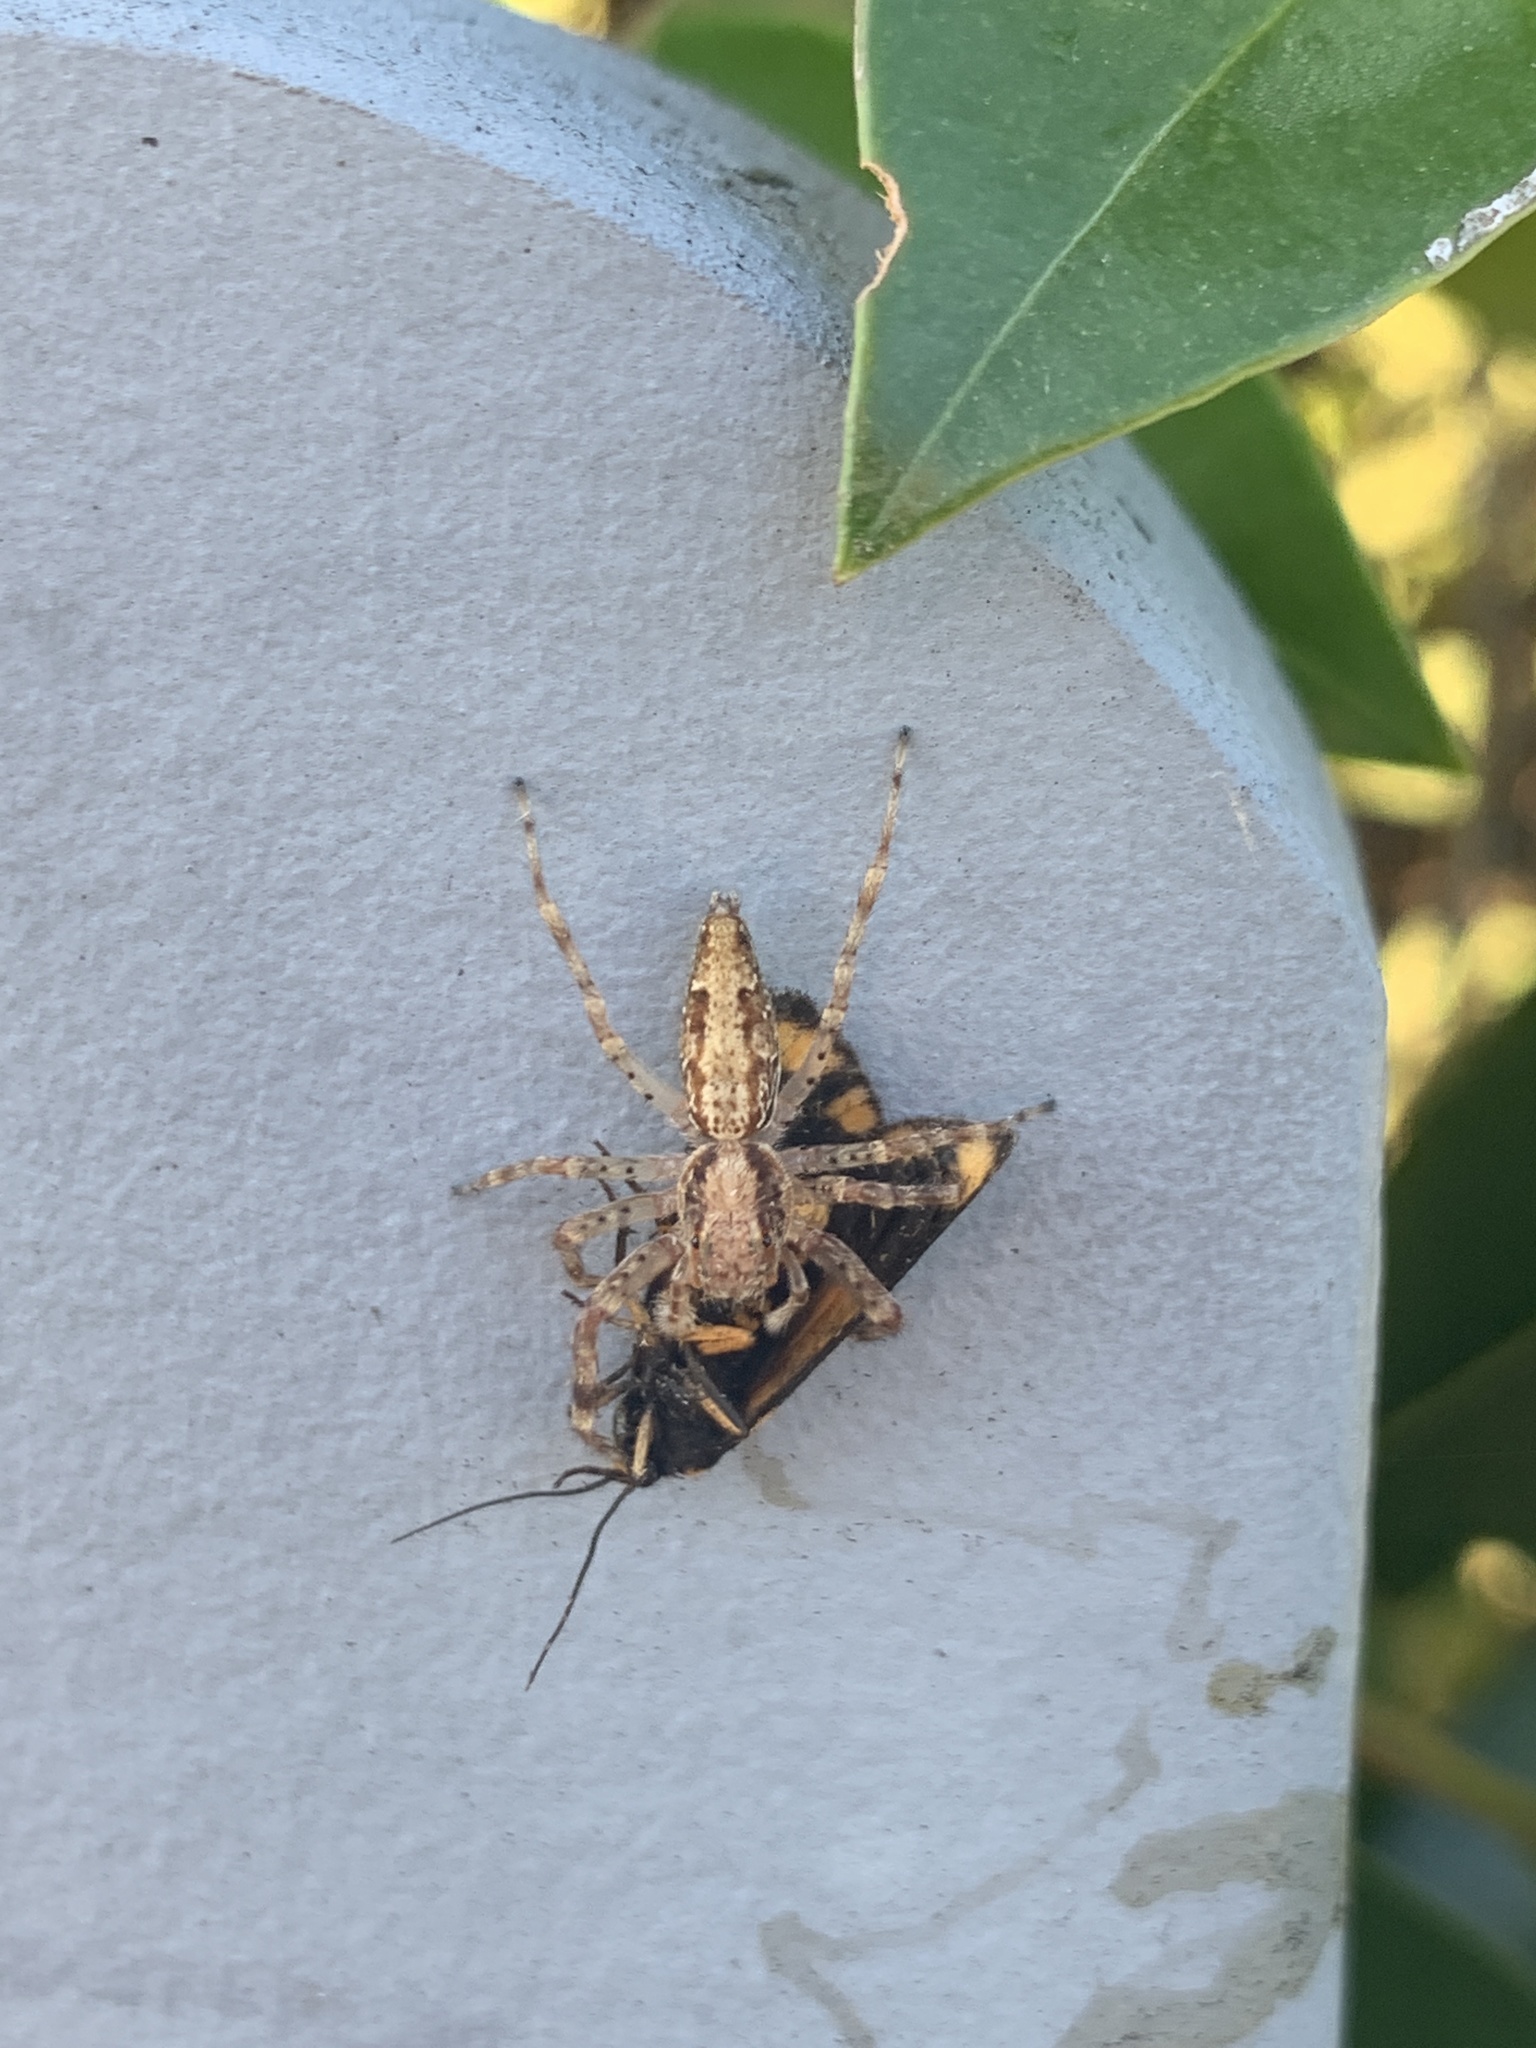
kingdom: Animalia
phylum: Arthropoda
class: Arachnida
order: Araneae
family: Salticidae
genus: Helpis
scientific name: Helpis minitabunda
